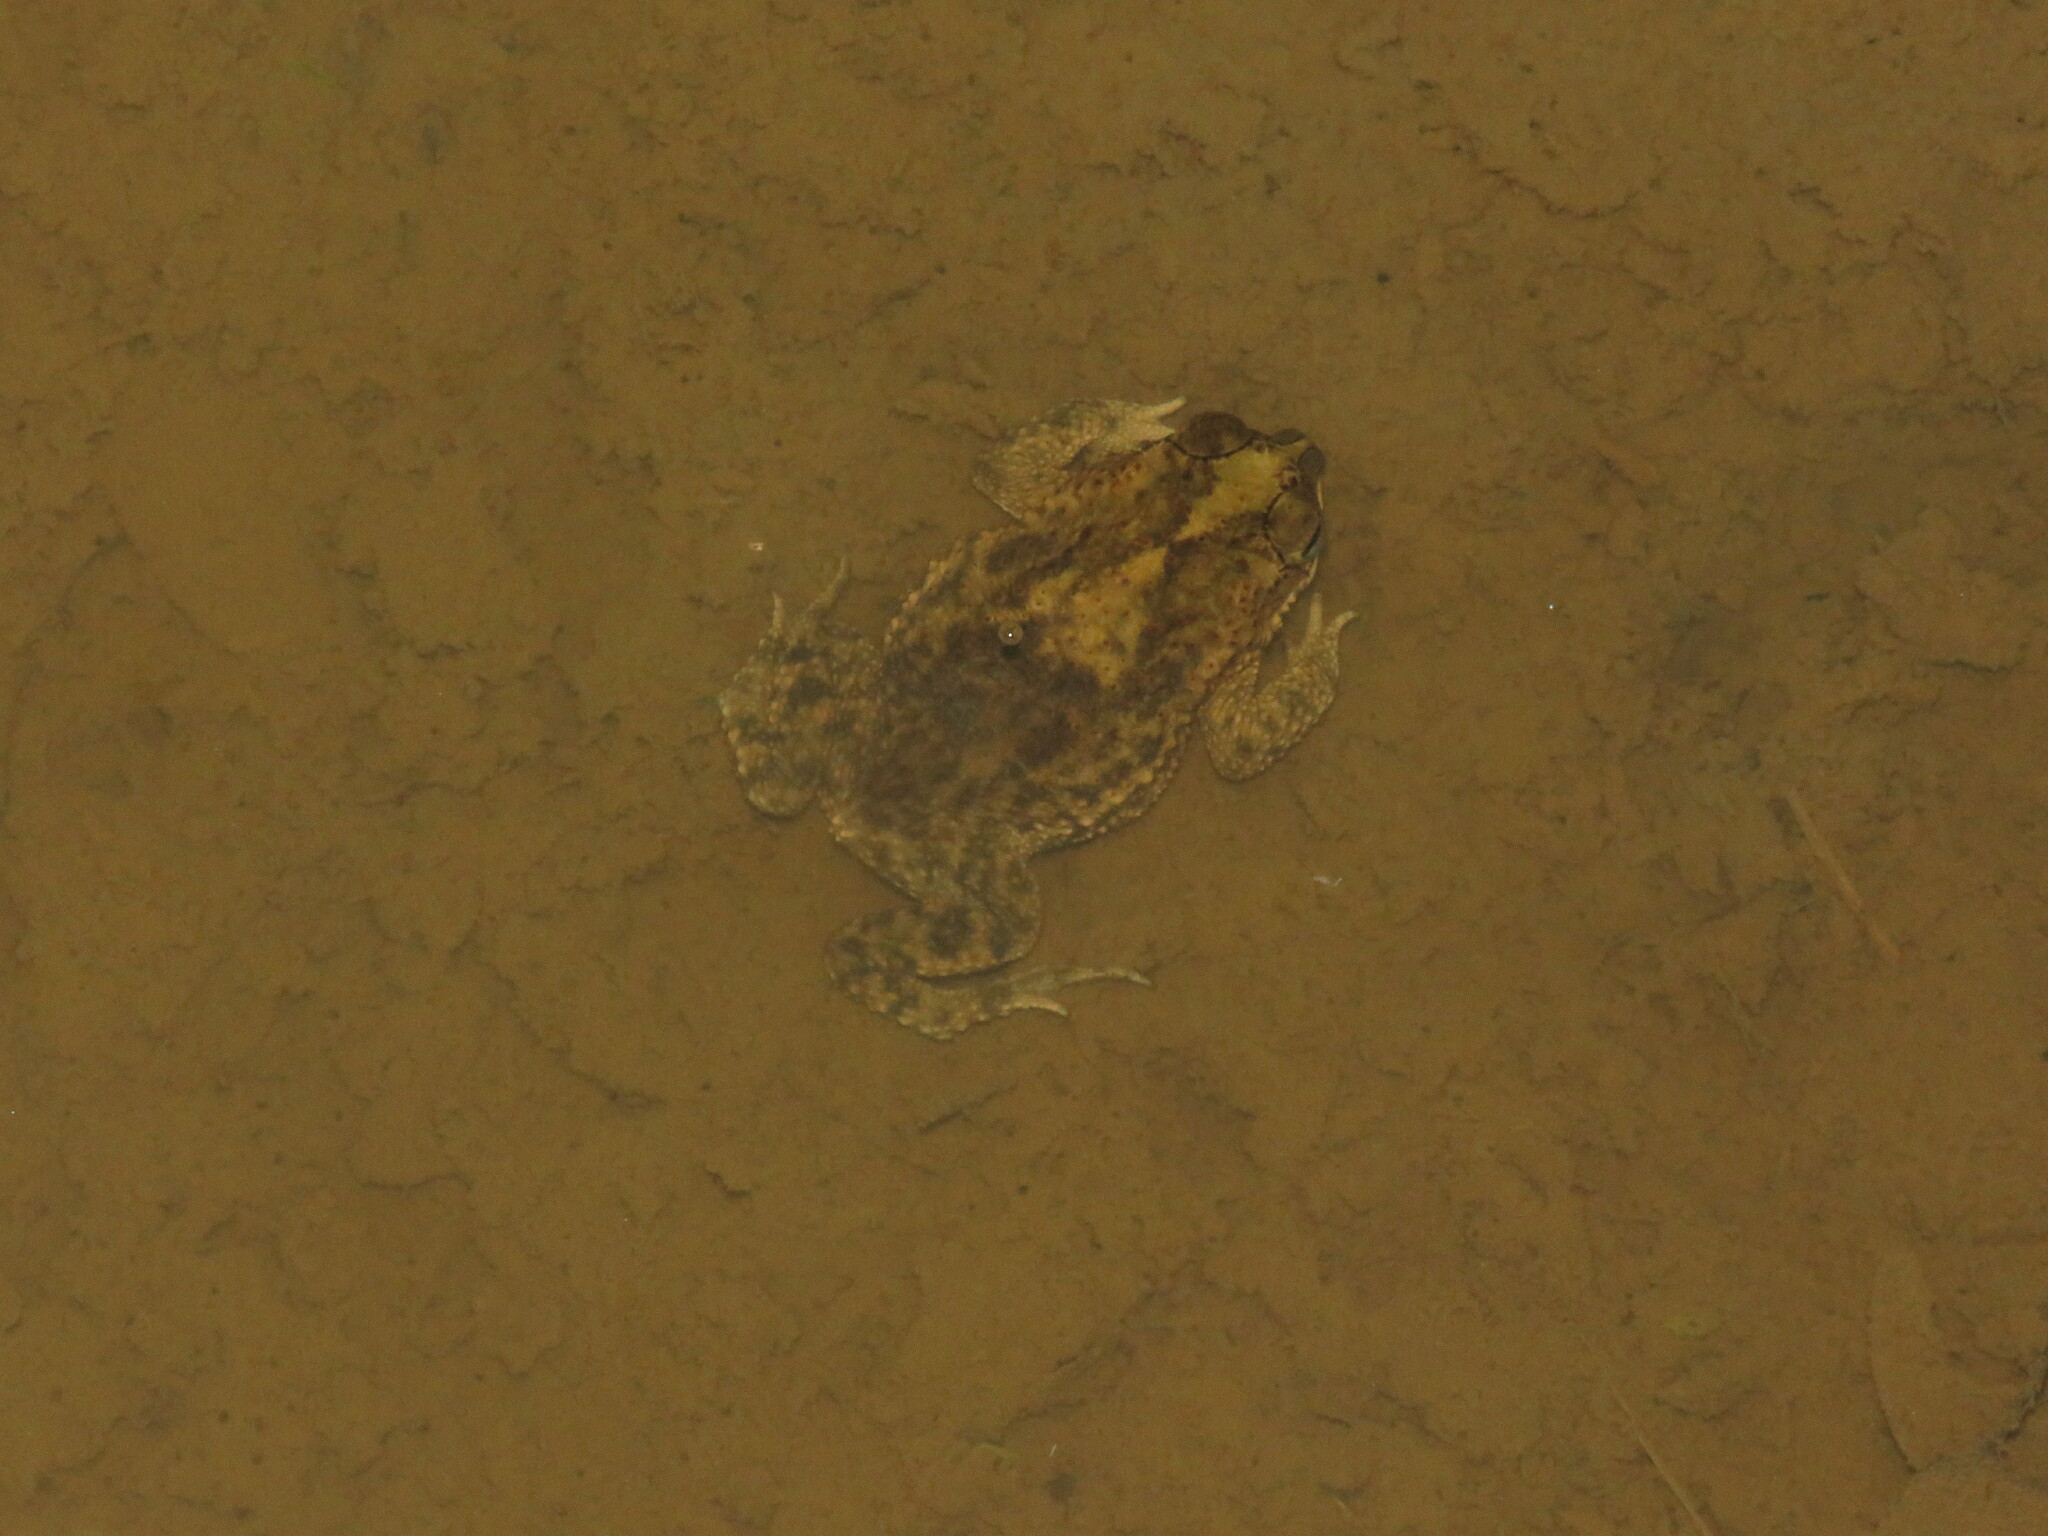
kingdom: Animalia
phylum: Chordata
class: Amphibia
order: Anura
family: Bufonidae
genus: Rhinella
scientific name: Rhinella major
